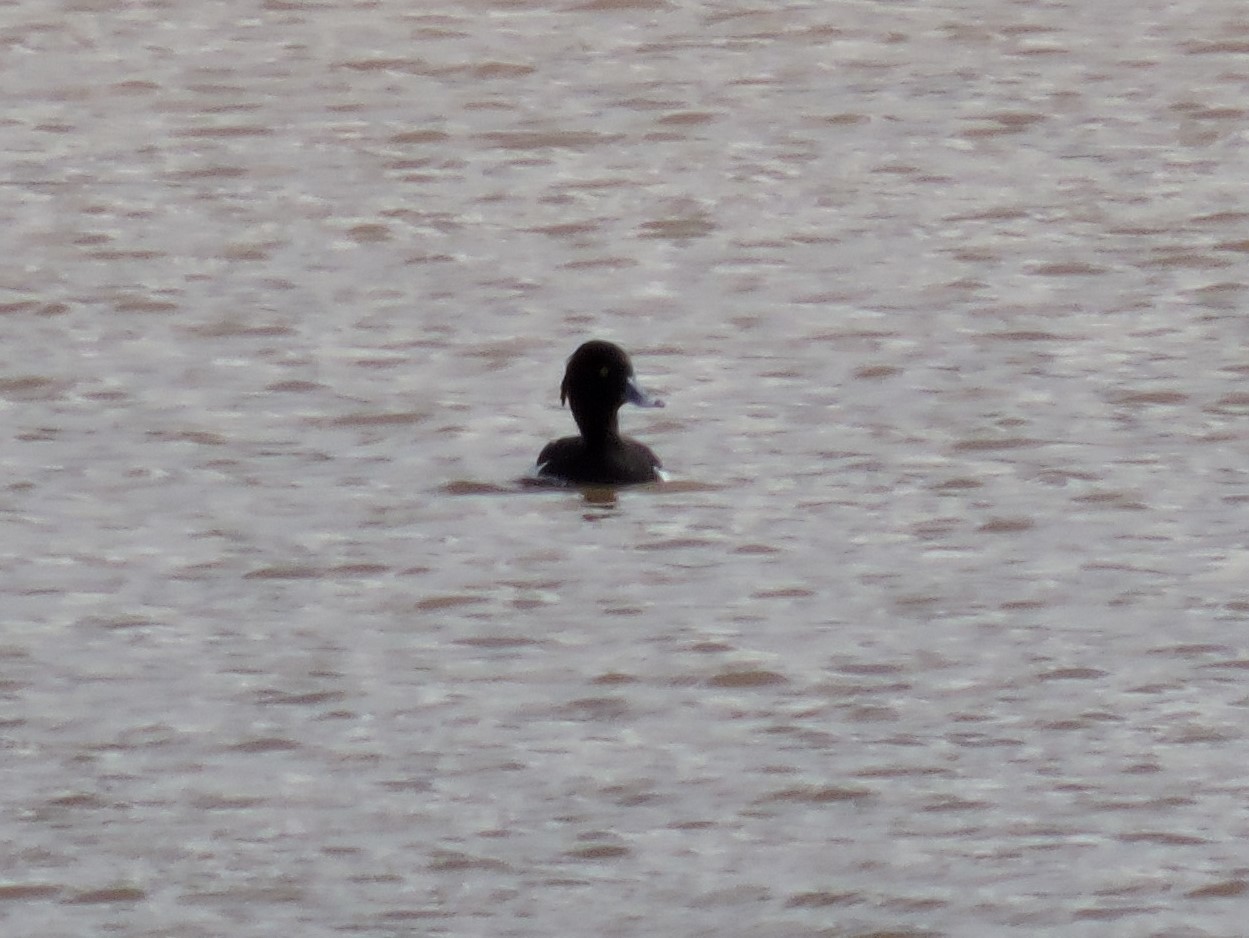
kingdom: Animalia
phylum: Chordata
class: Aves
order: Anseriformes
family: Anatidae
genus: Aythya
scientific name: Aythya fuligula
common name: Tufted duck
